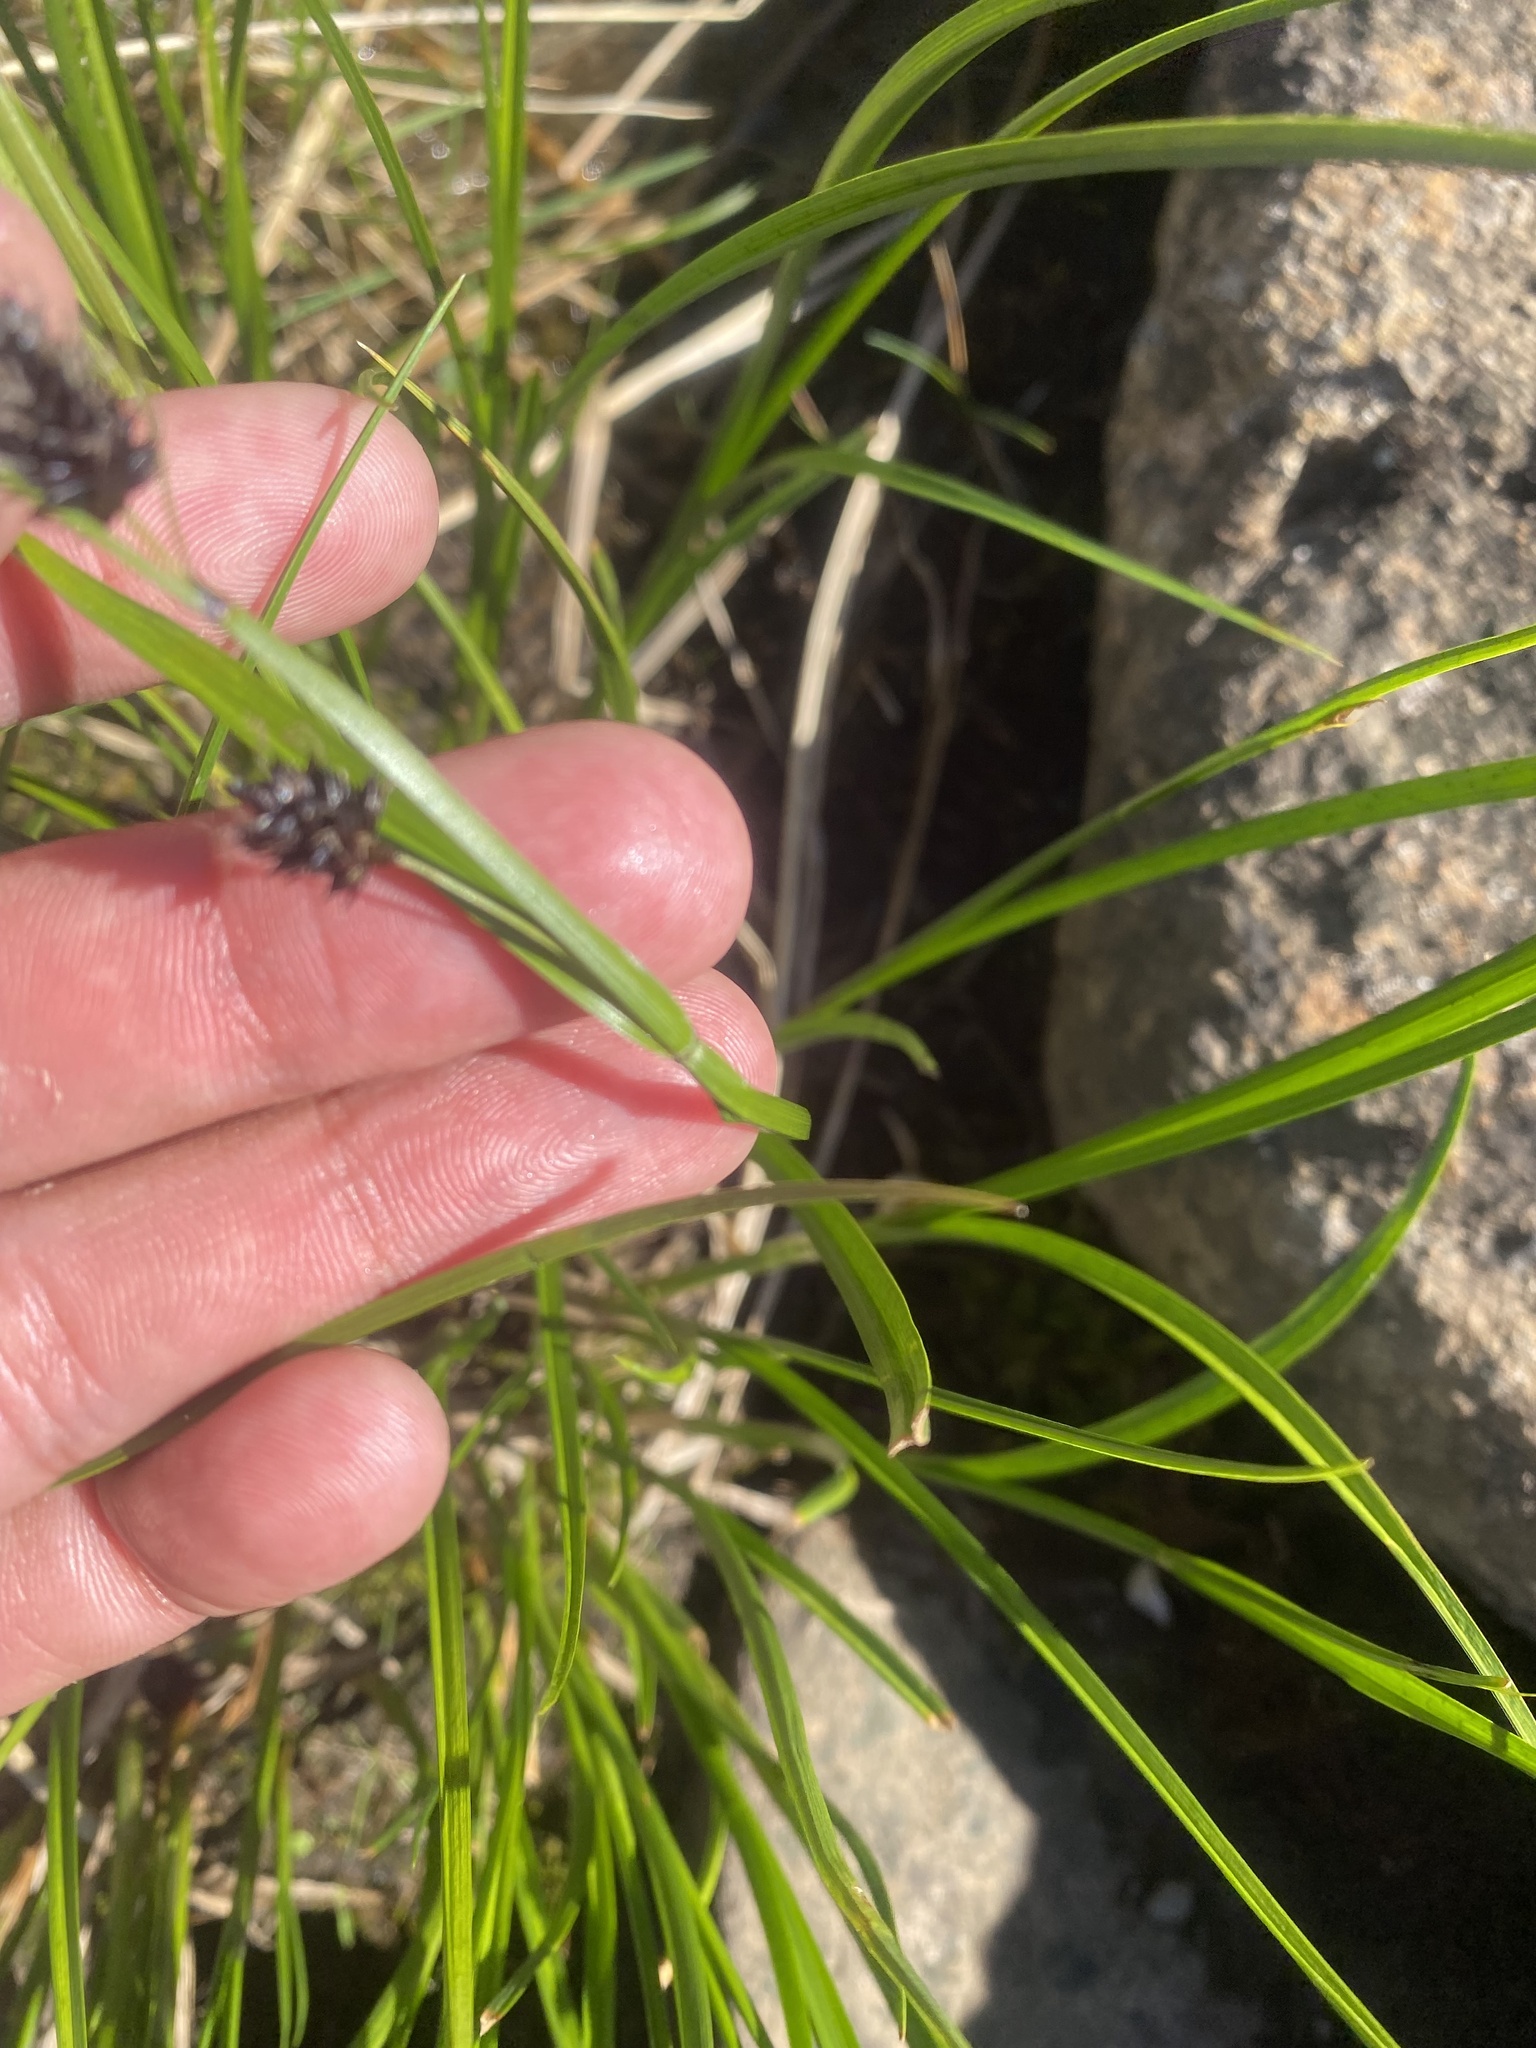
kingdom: Plantae
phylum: Tracheophyta
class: Liliopsida
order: Poales
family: Cyperaceae
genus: Carex
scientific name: Carex saxatilis
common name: Russet sedge
